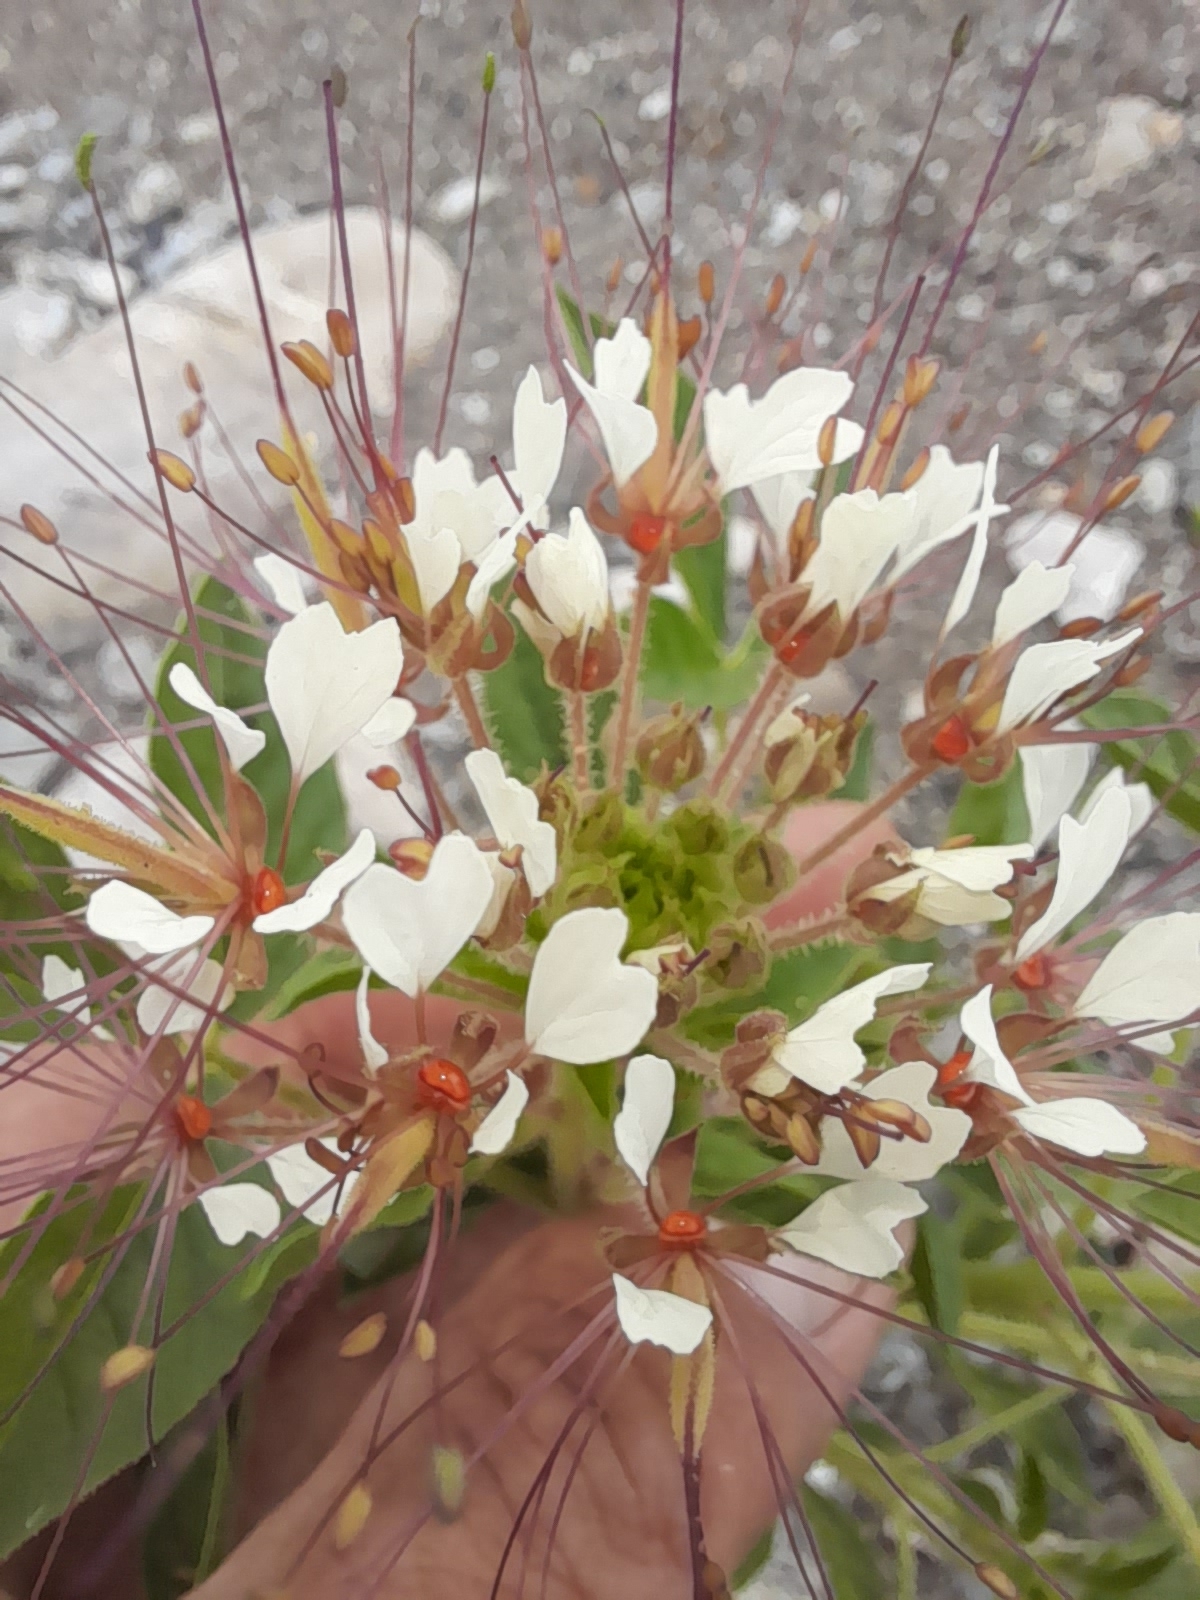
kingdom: Plantae
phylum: Tracheophyta
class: Magnoliopsida
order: Brassicales
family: Cleomaceae
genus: Polanisia
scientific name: Polanisia trachysperma
